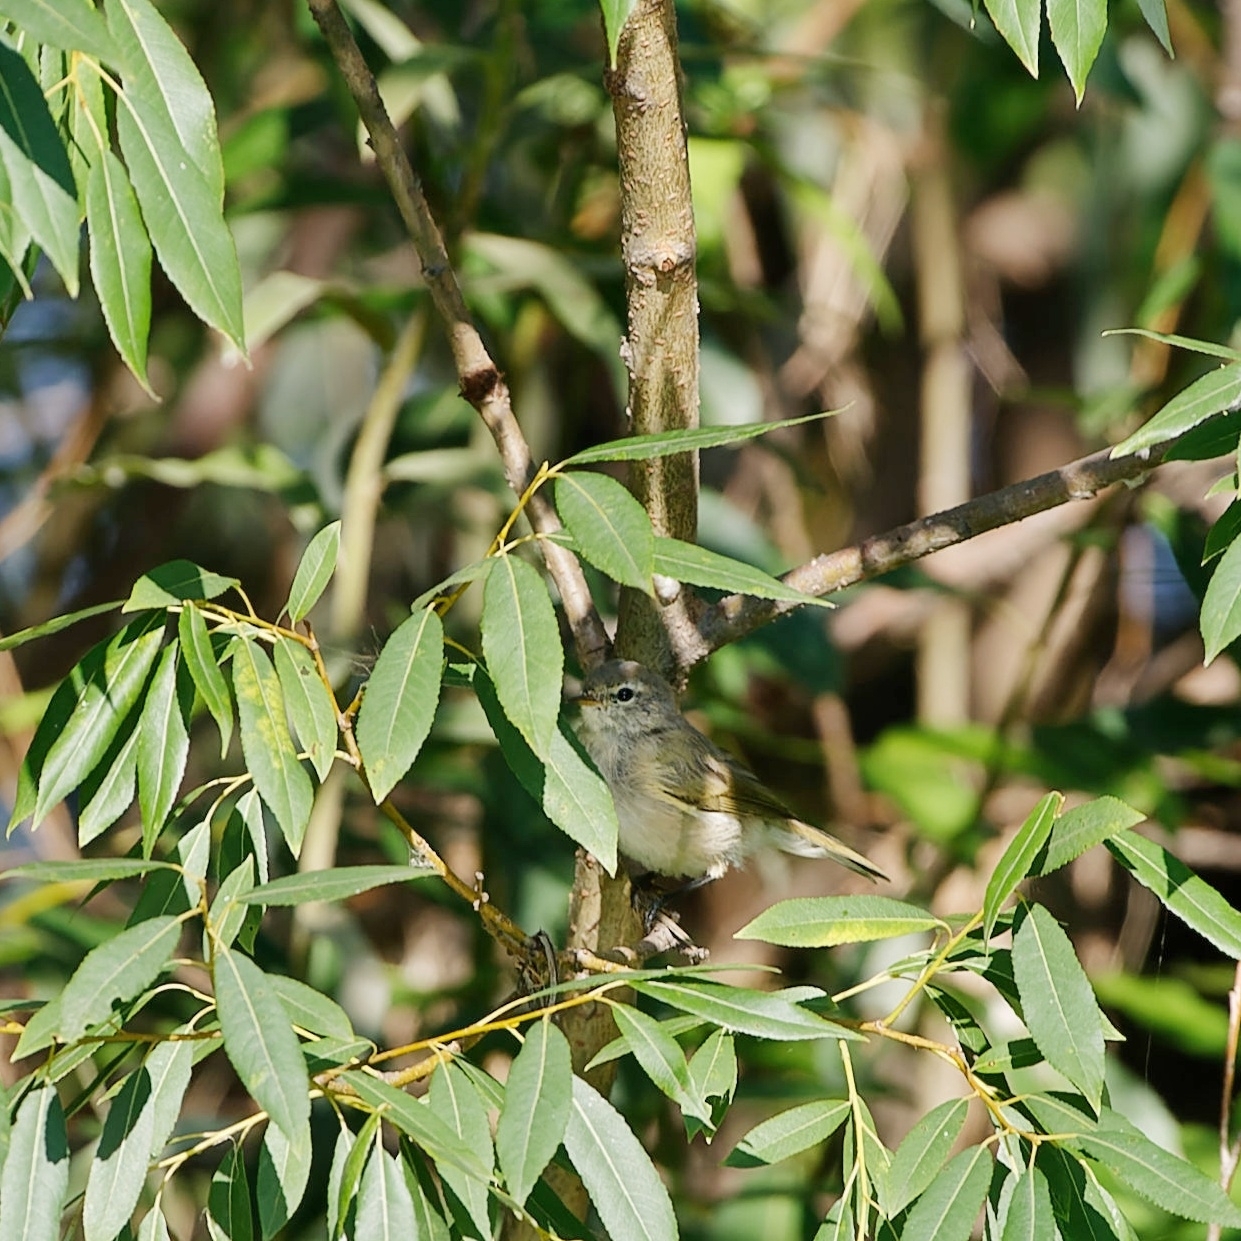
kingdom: Animalia
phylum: Chordata
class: Aves
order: Passeriformes
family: Phylloscopidae
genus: Phylloscopus
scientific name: Phylloscopus collybita
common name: Common chiffchaff
